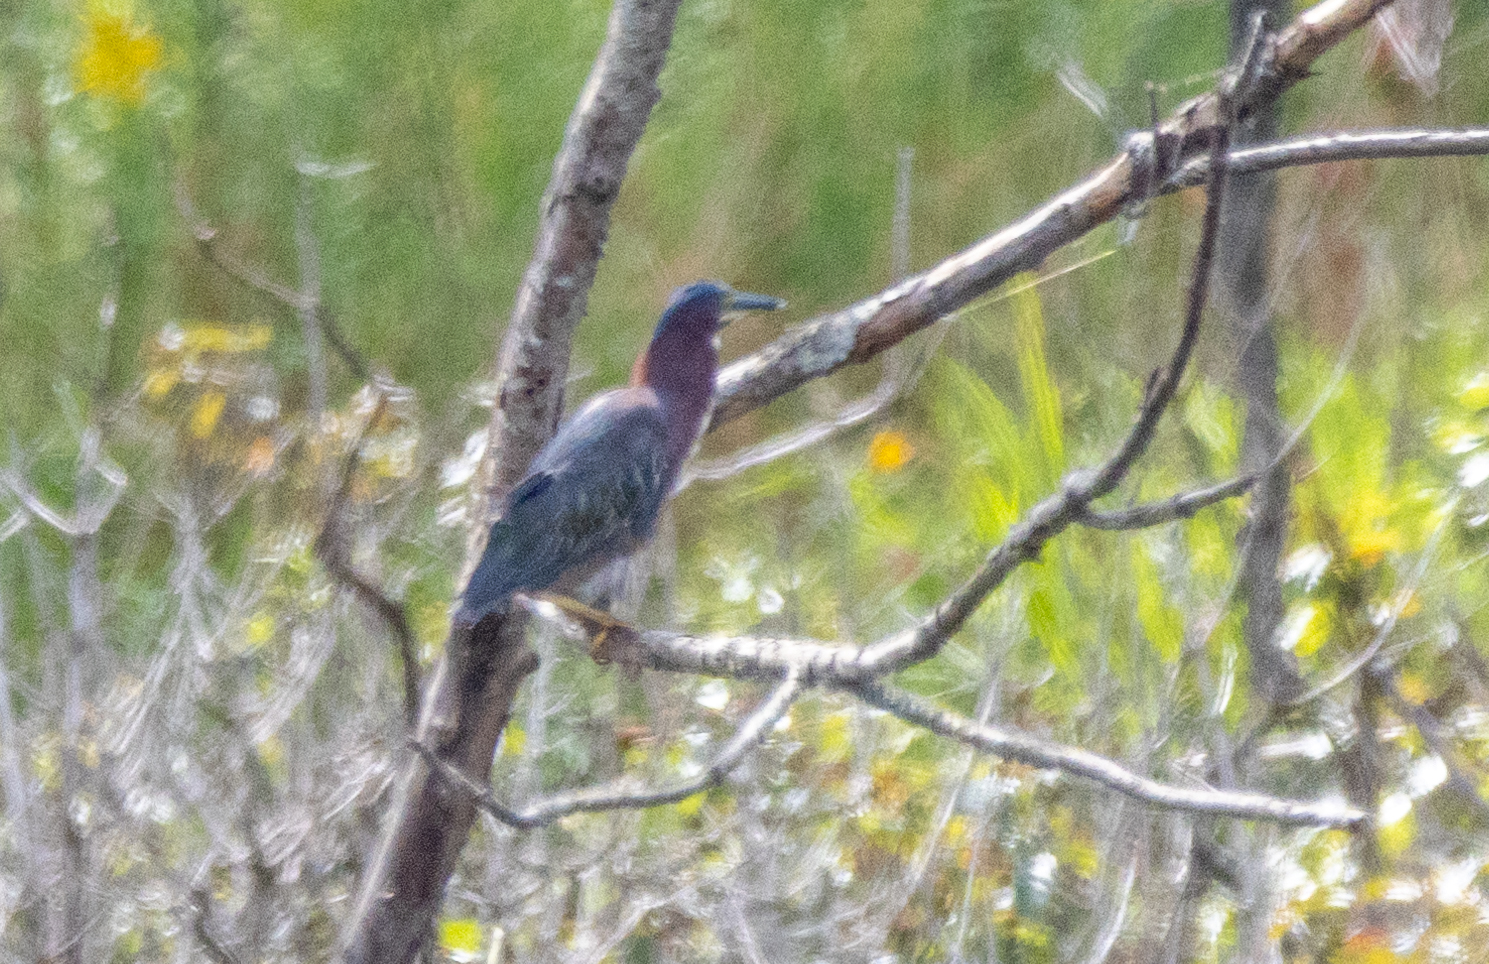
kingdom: Animalia
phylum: Chordata
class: Aves
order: Pelecaniformes
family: Ardeidae
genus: Butorides
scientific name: Butorides virescens
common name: Green heron
